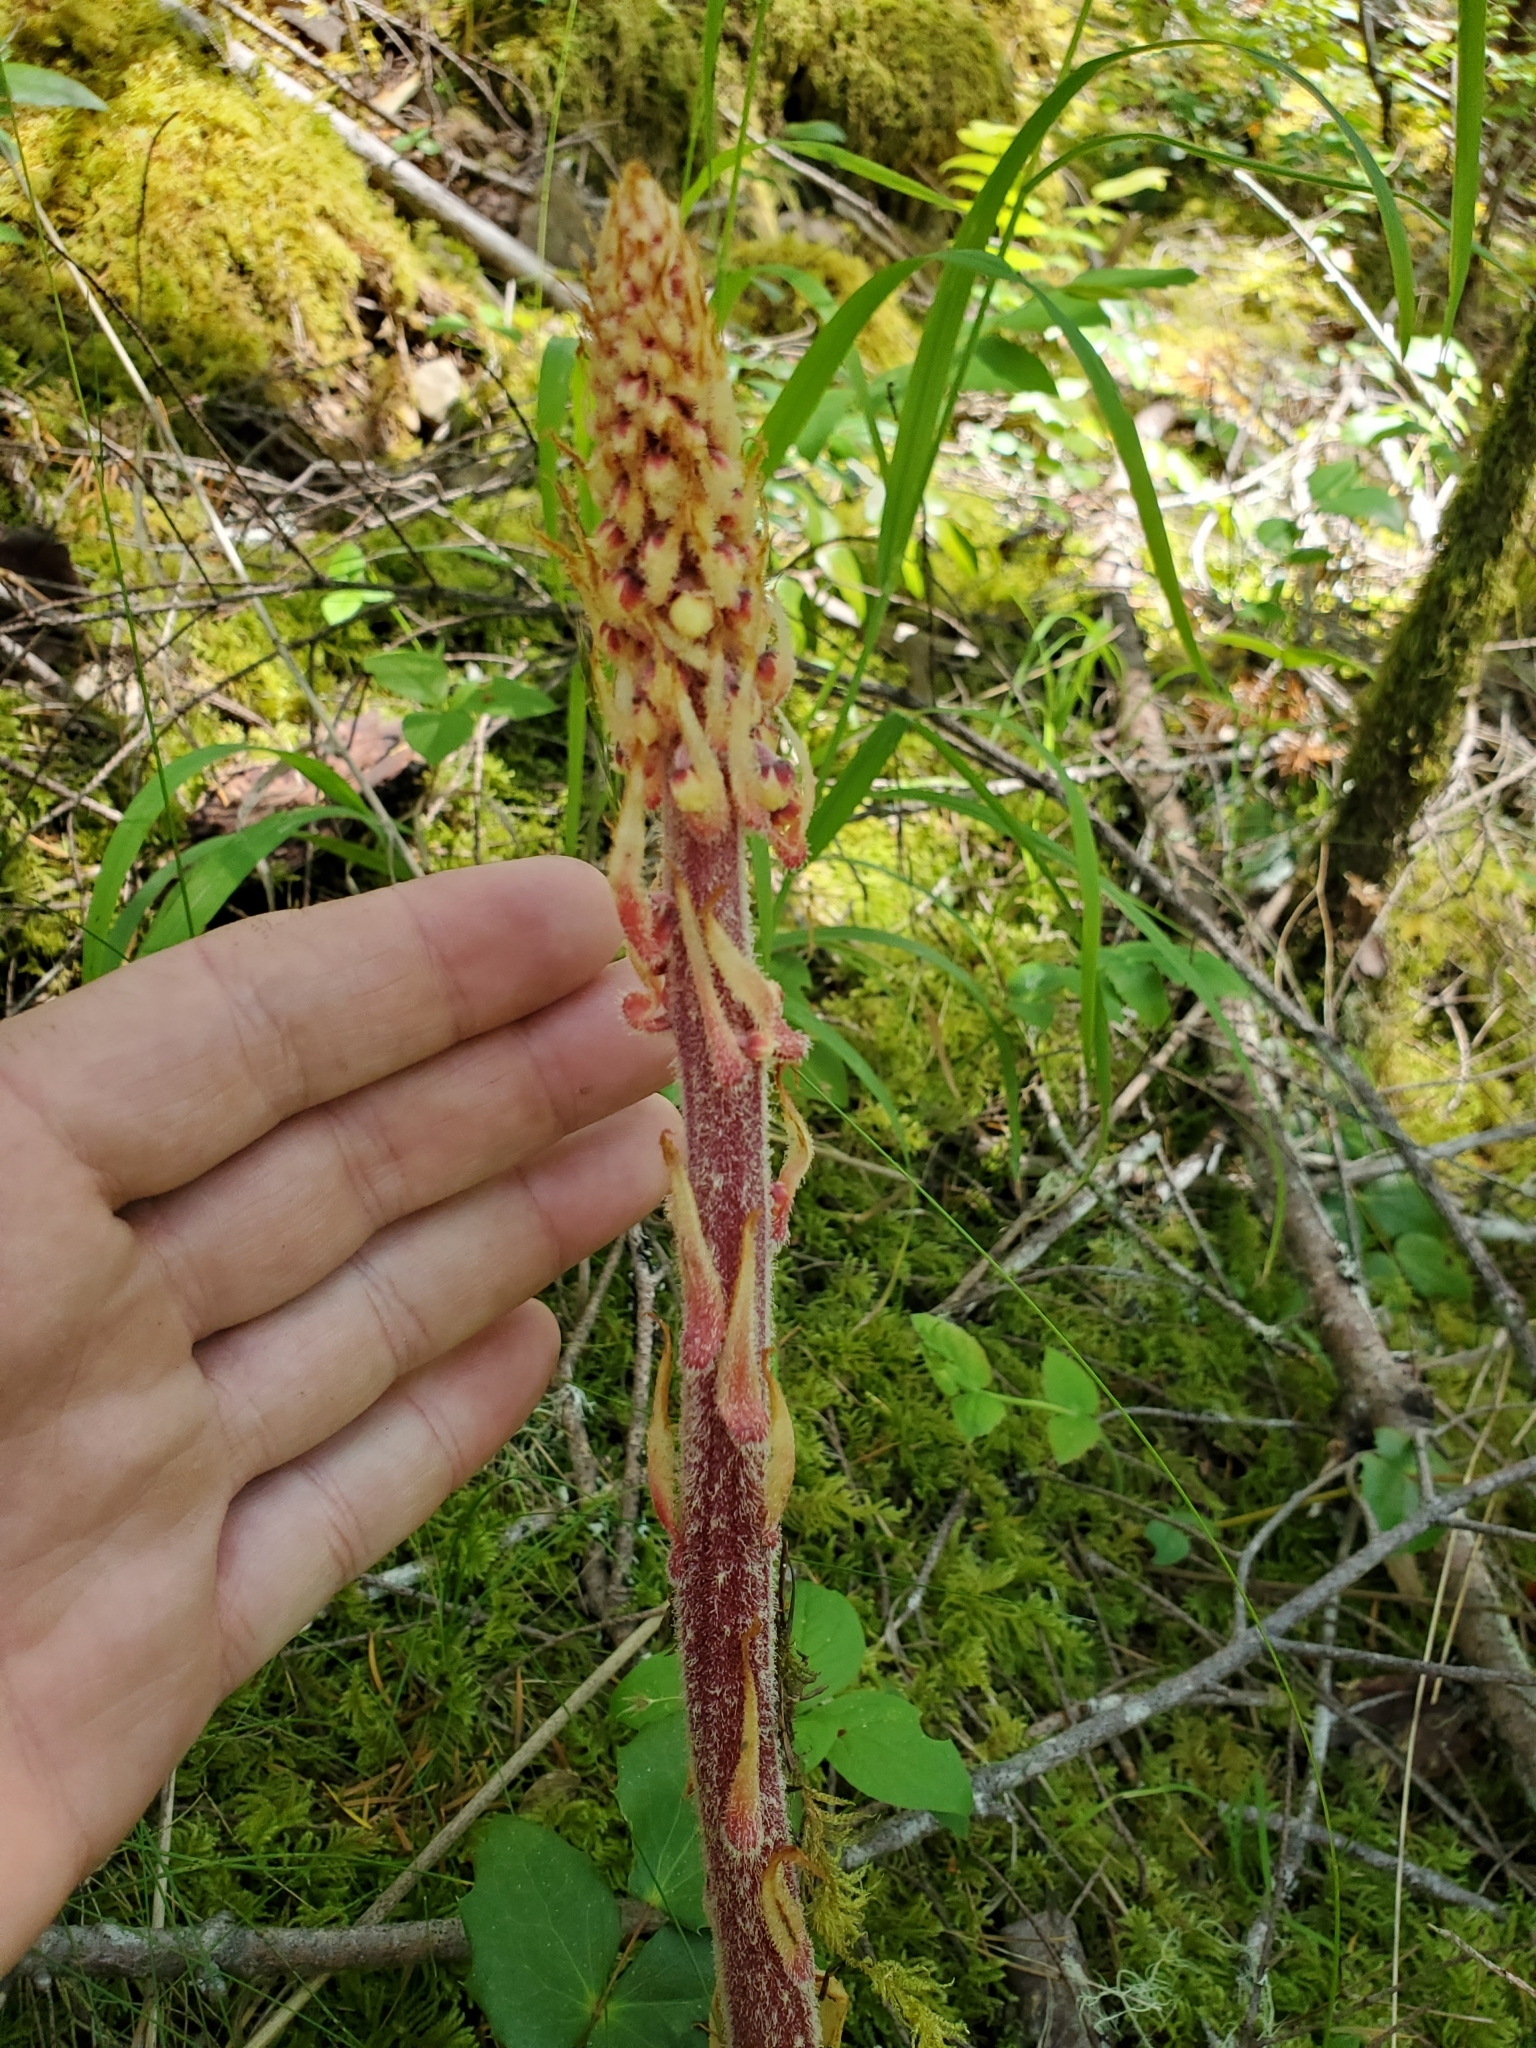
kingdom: Plantae
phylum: Tracheophyta
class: Magnoliopsida
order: Ericales
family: Ericaceae
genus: Pterospora
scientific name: Pterospora andromedea
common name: Giant bird's-nest
